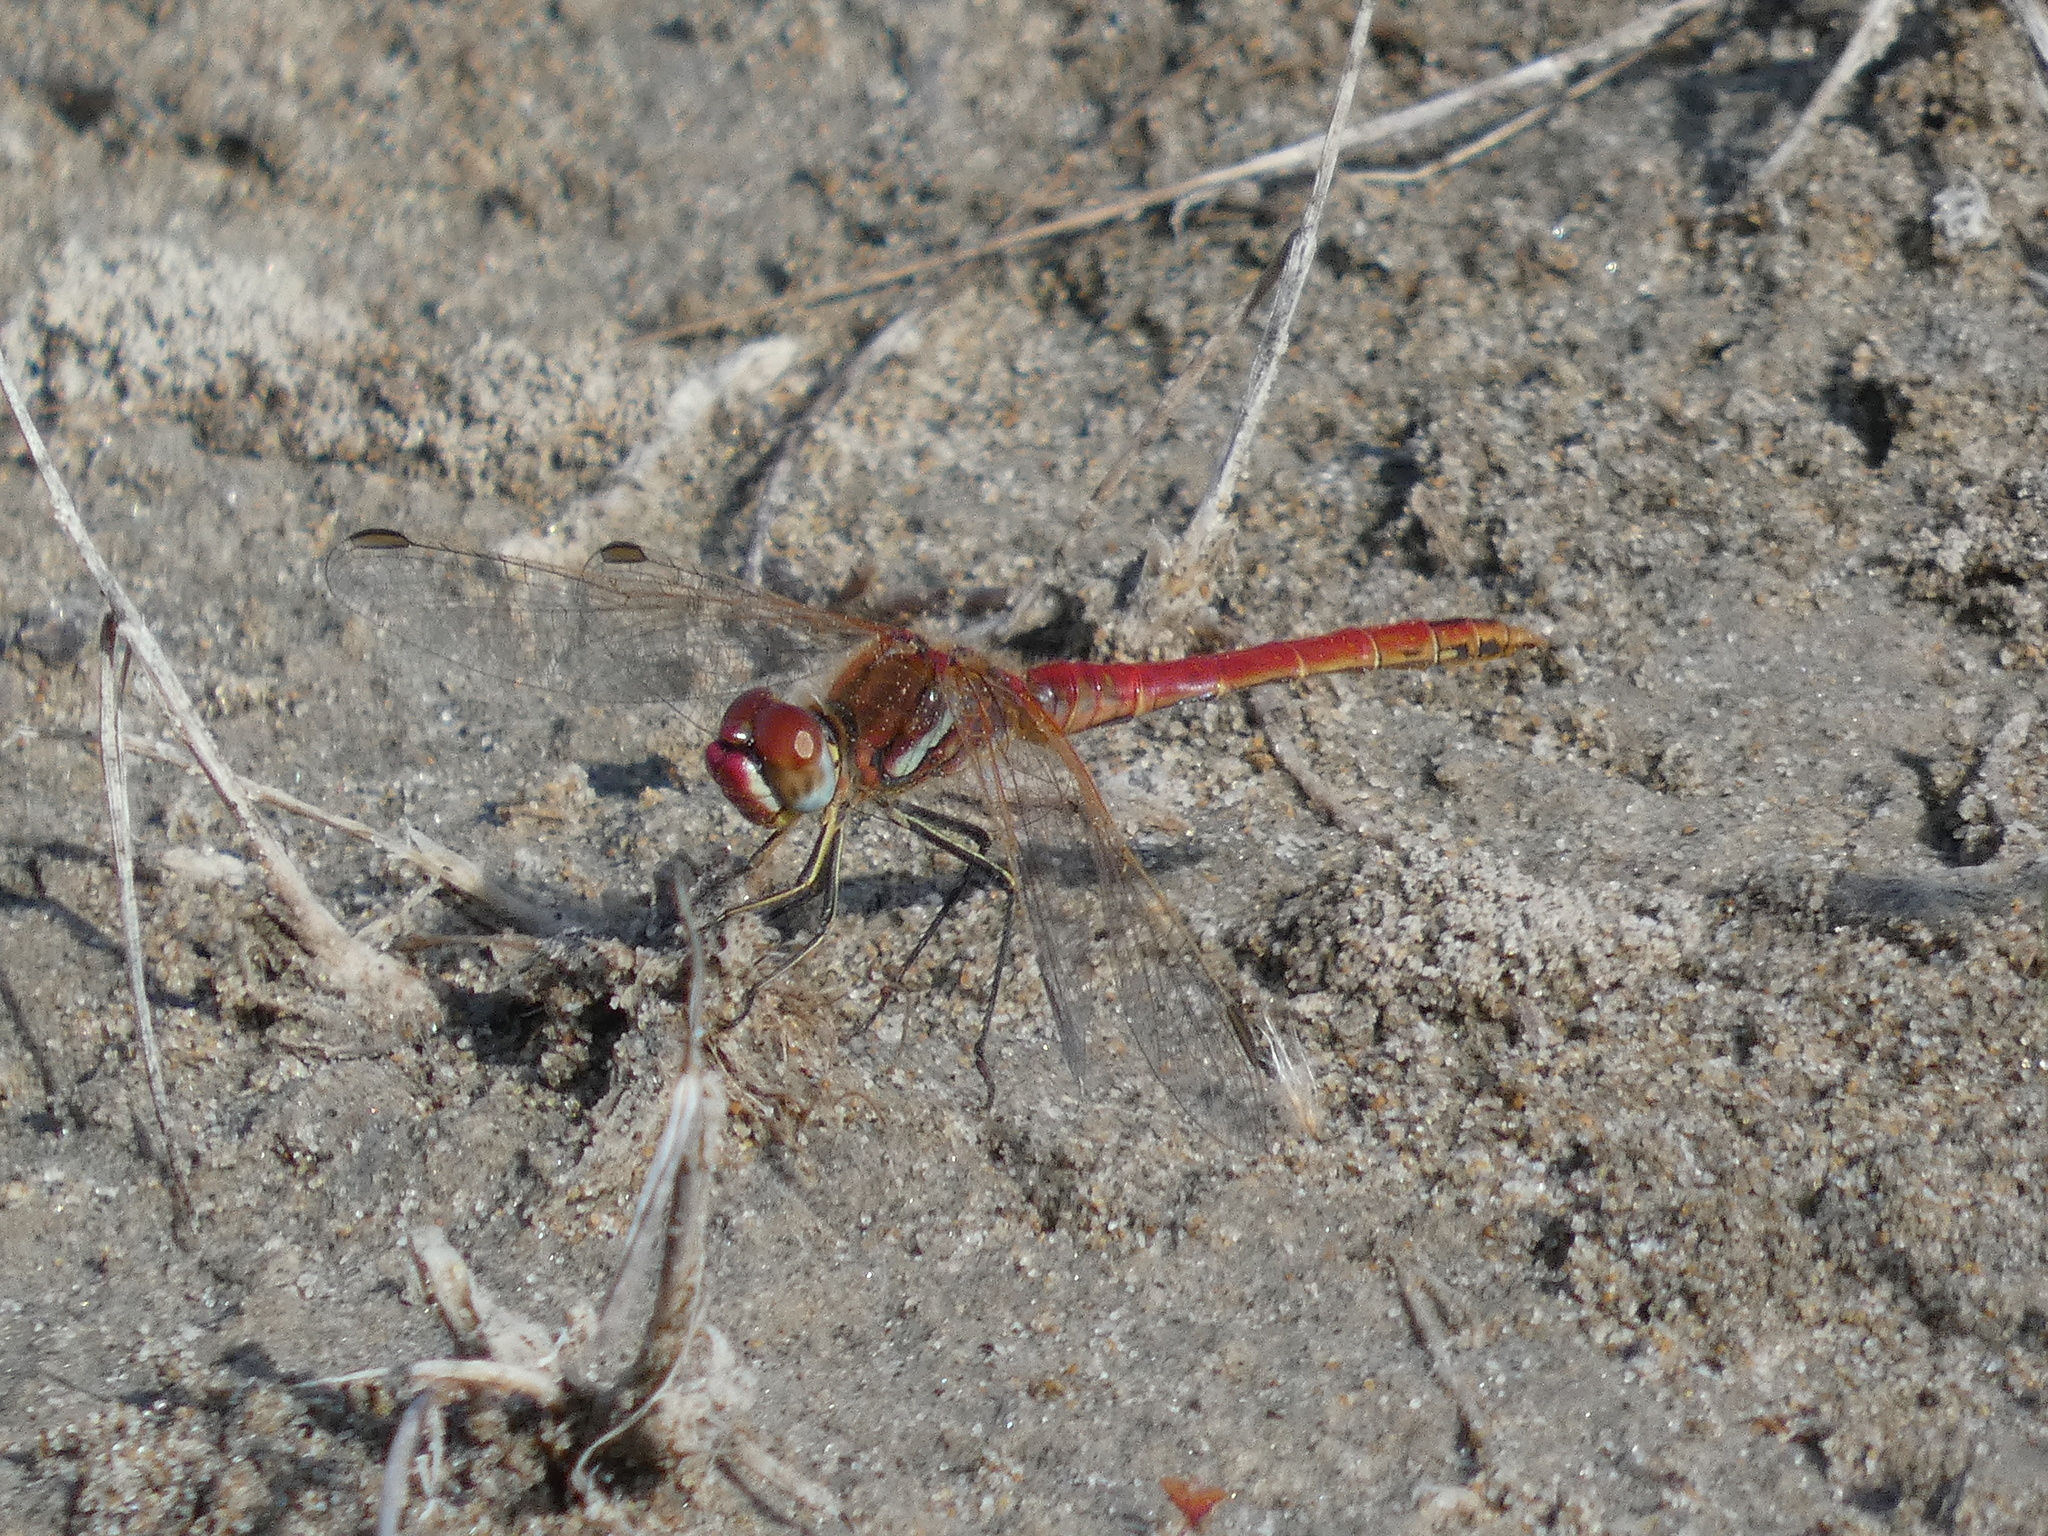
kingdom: Animalia
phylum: Arthropoda
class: Insecta
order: Odonata
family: Libellulidae
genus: Sympetrum
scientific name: Sympetrum fonscolombii
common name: Red-veined darter
